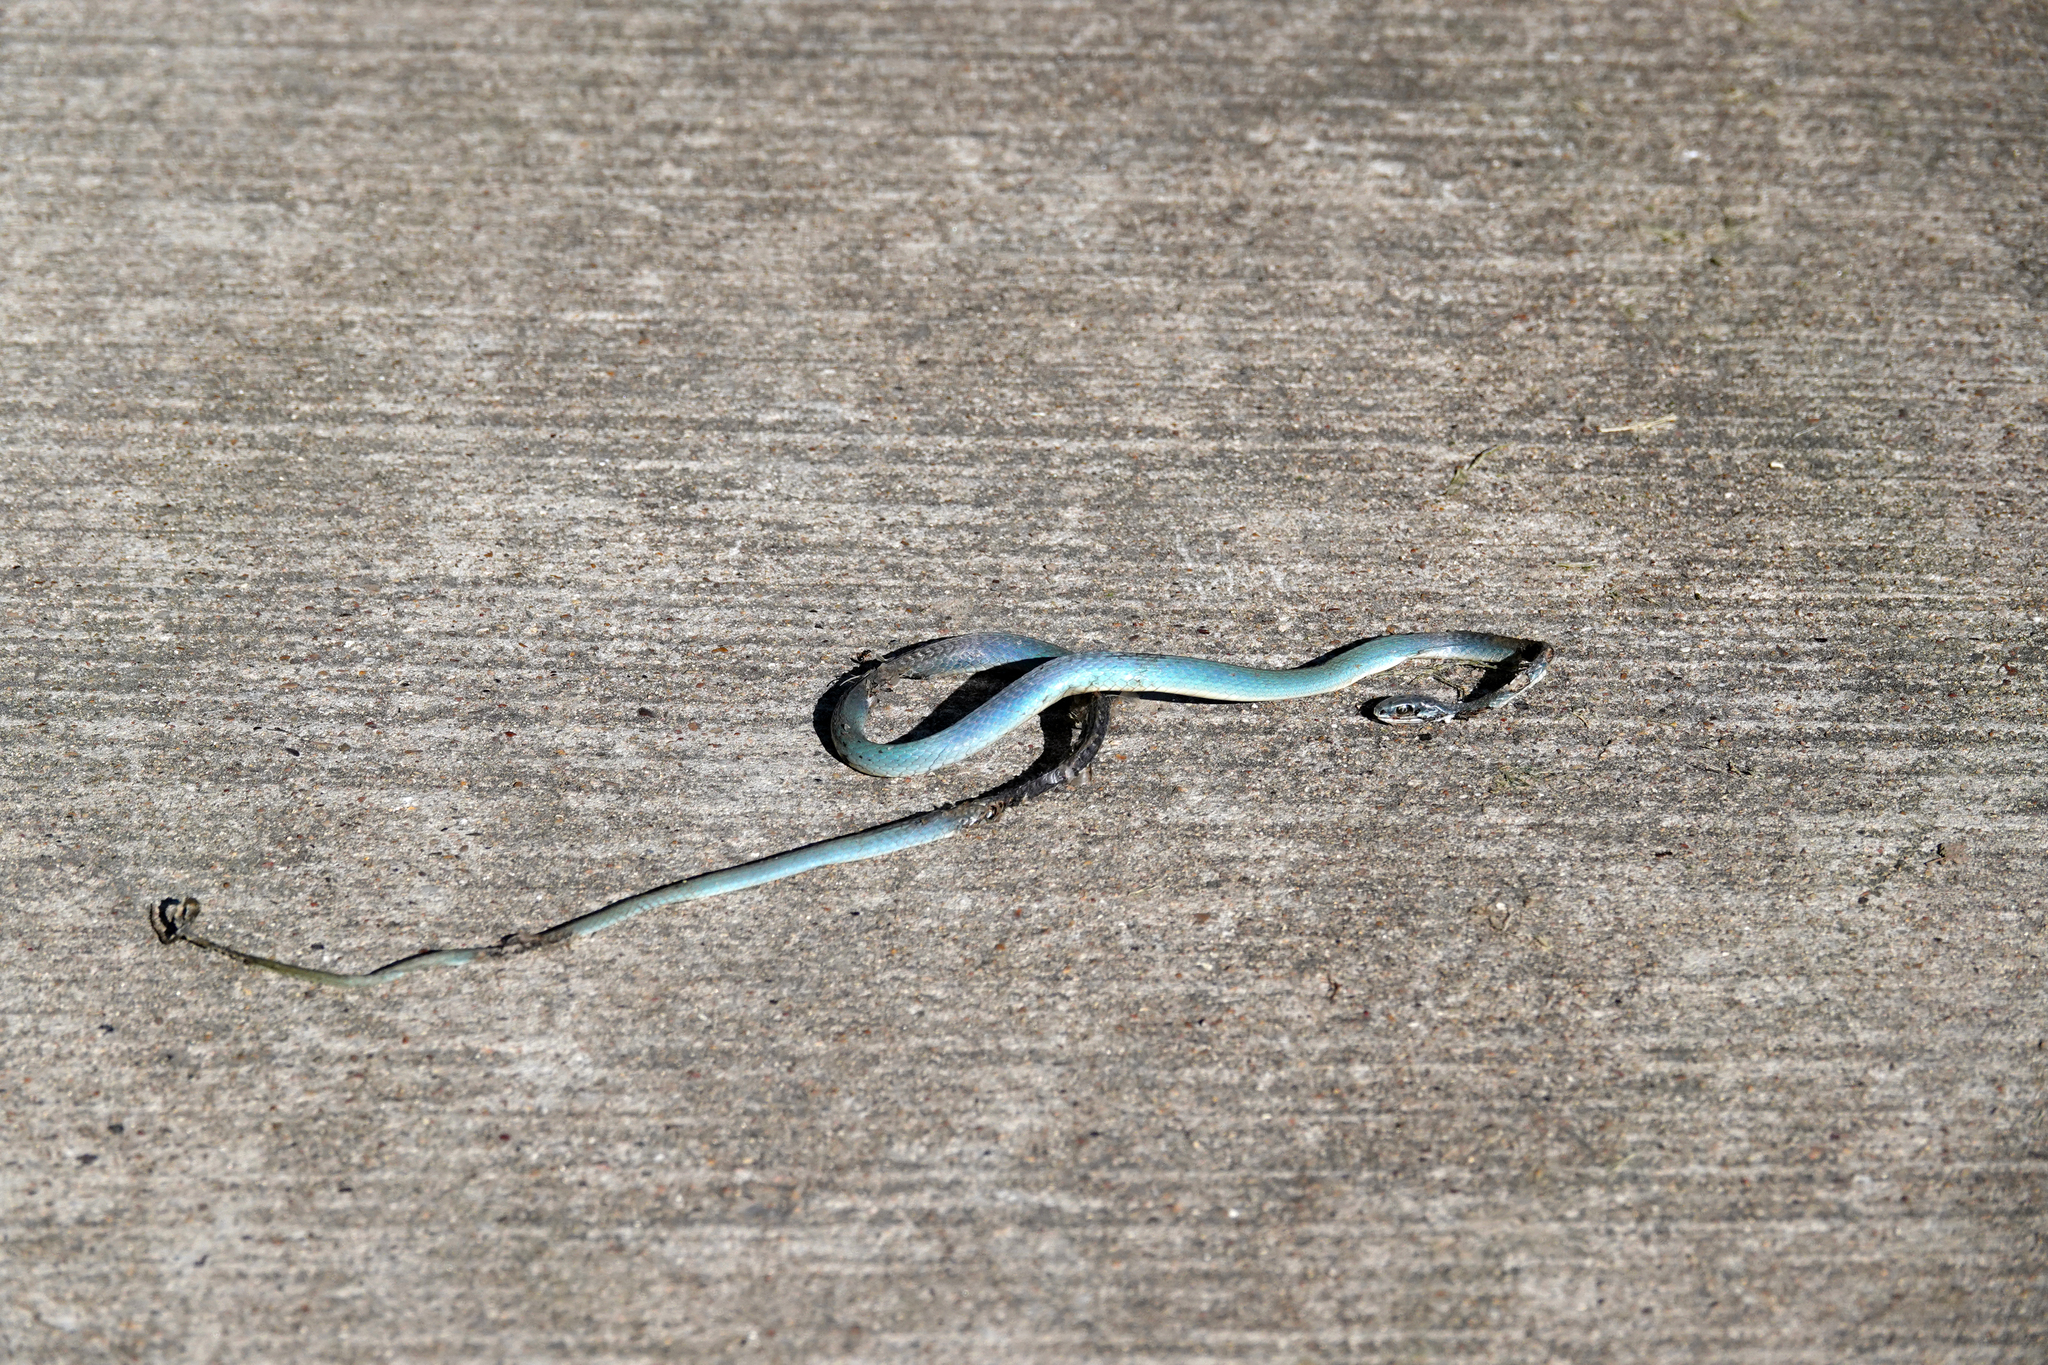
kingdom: Animalia
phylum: Chordata
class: Squamata
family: Colubridae
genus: Opheodrys
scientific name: Opheodrys aestivus
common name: Rough greensnake
